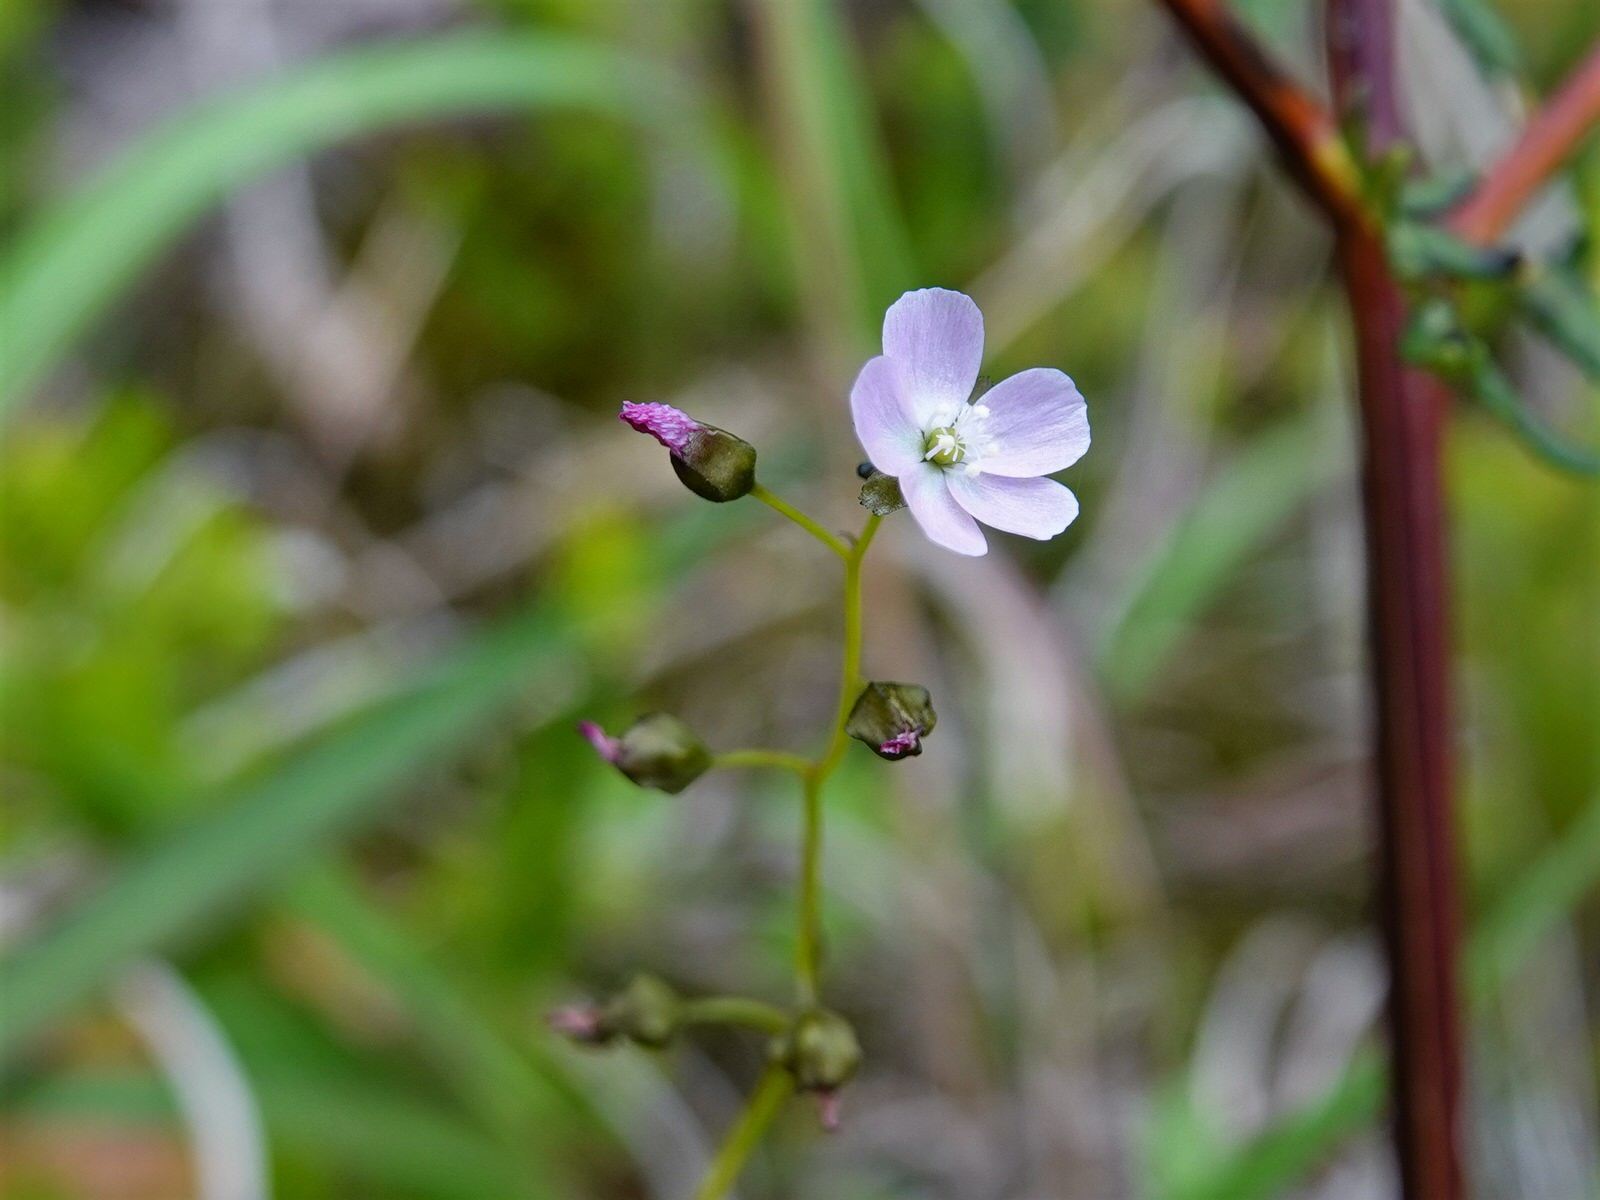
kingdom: Plantae
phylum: Tracheophyta
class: Magnoliopsida
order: Caryophyllales
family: Droseraceae
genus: Drosera
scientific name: Drosera peltata
